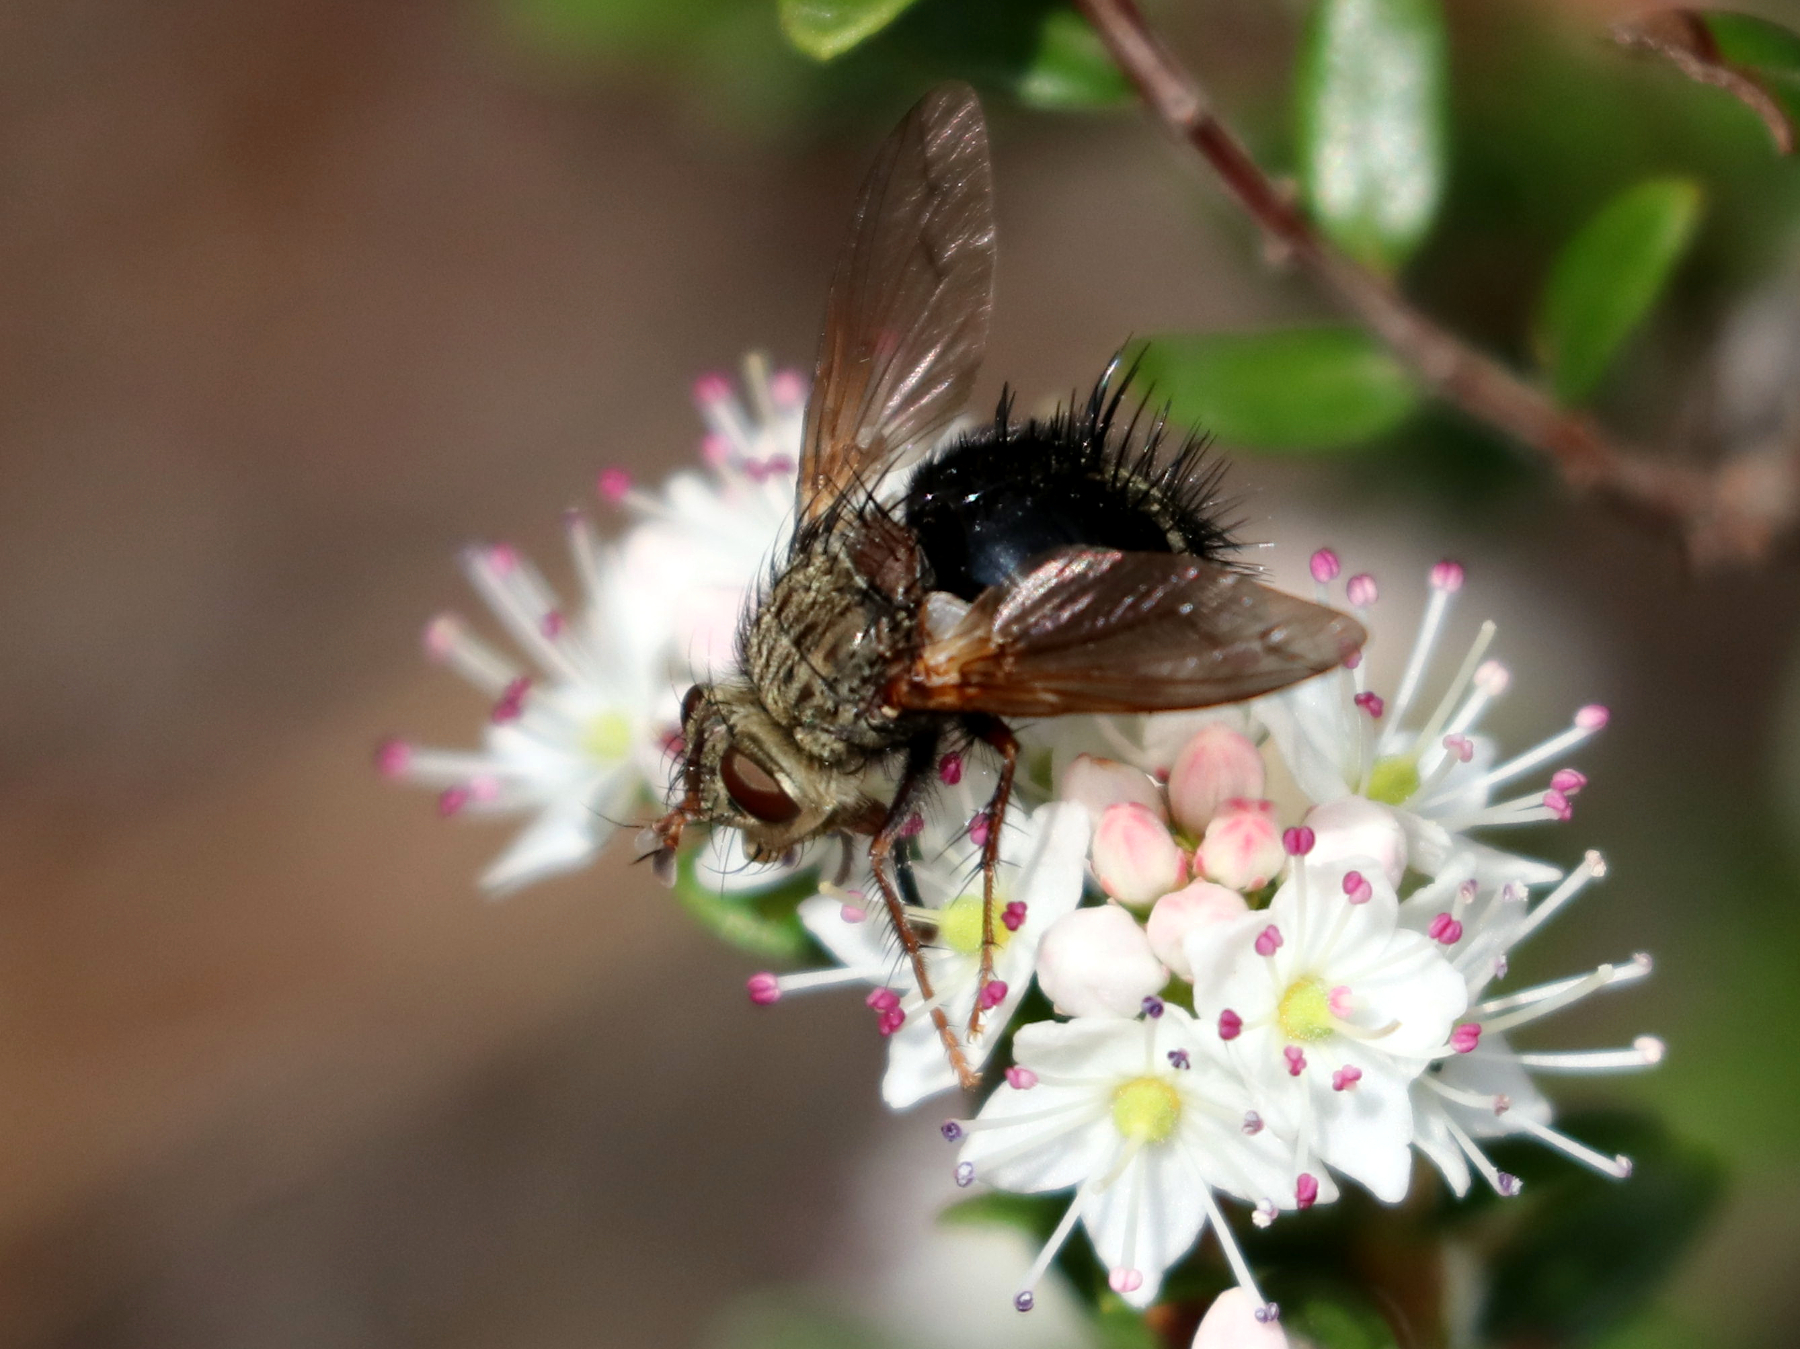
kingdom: Animalia
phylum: Arthropoda
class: Insecta
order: Diptera
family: Tachinidae
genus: Epalpus
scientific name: Epalpus signifer
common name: Early tachinid fly
